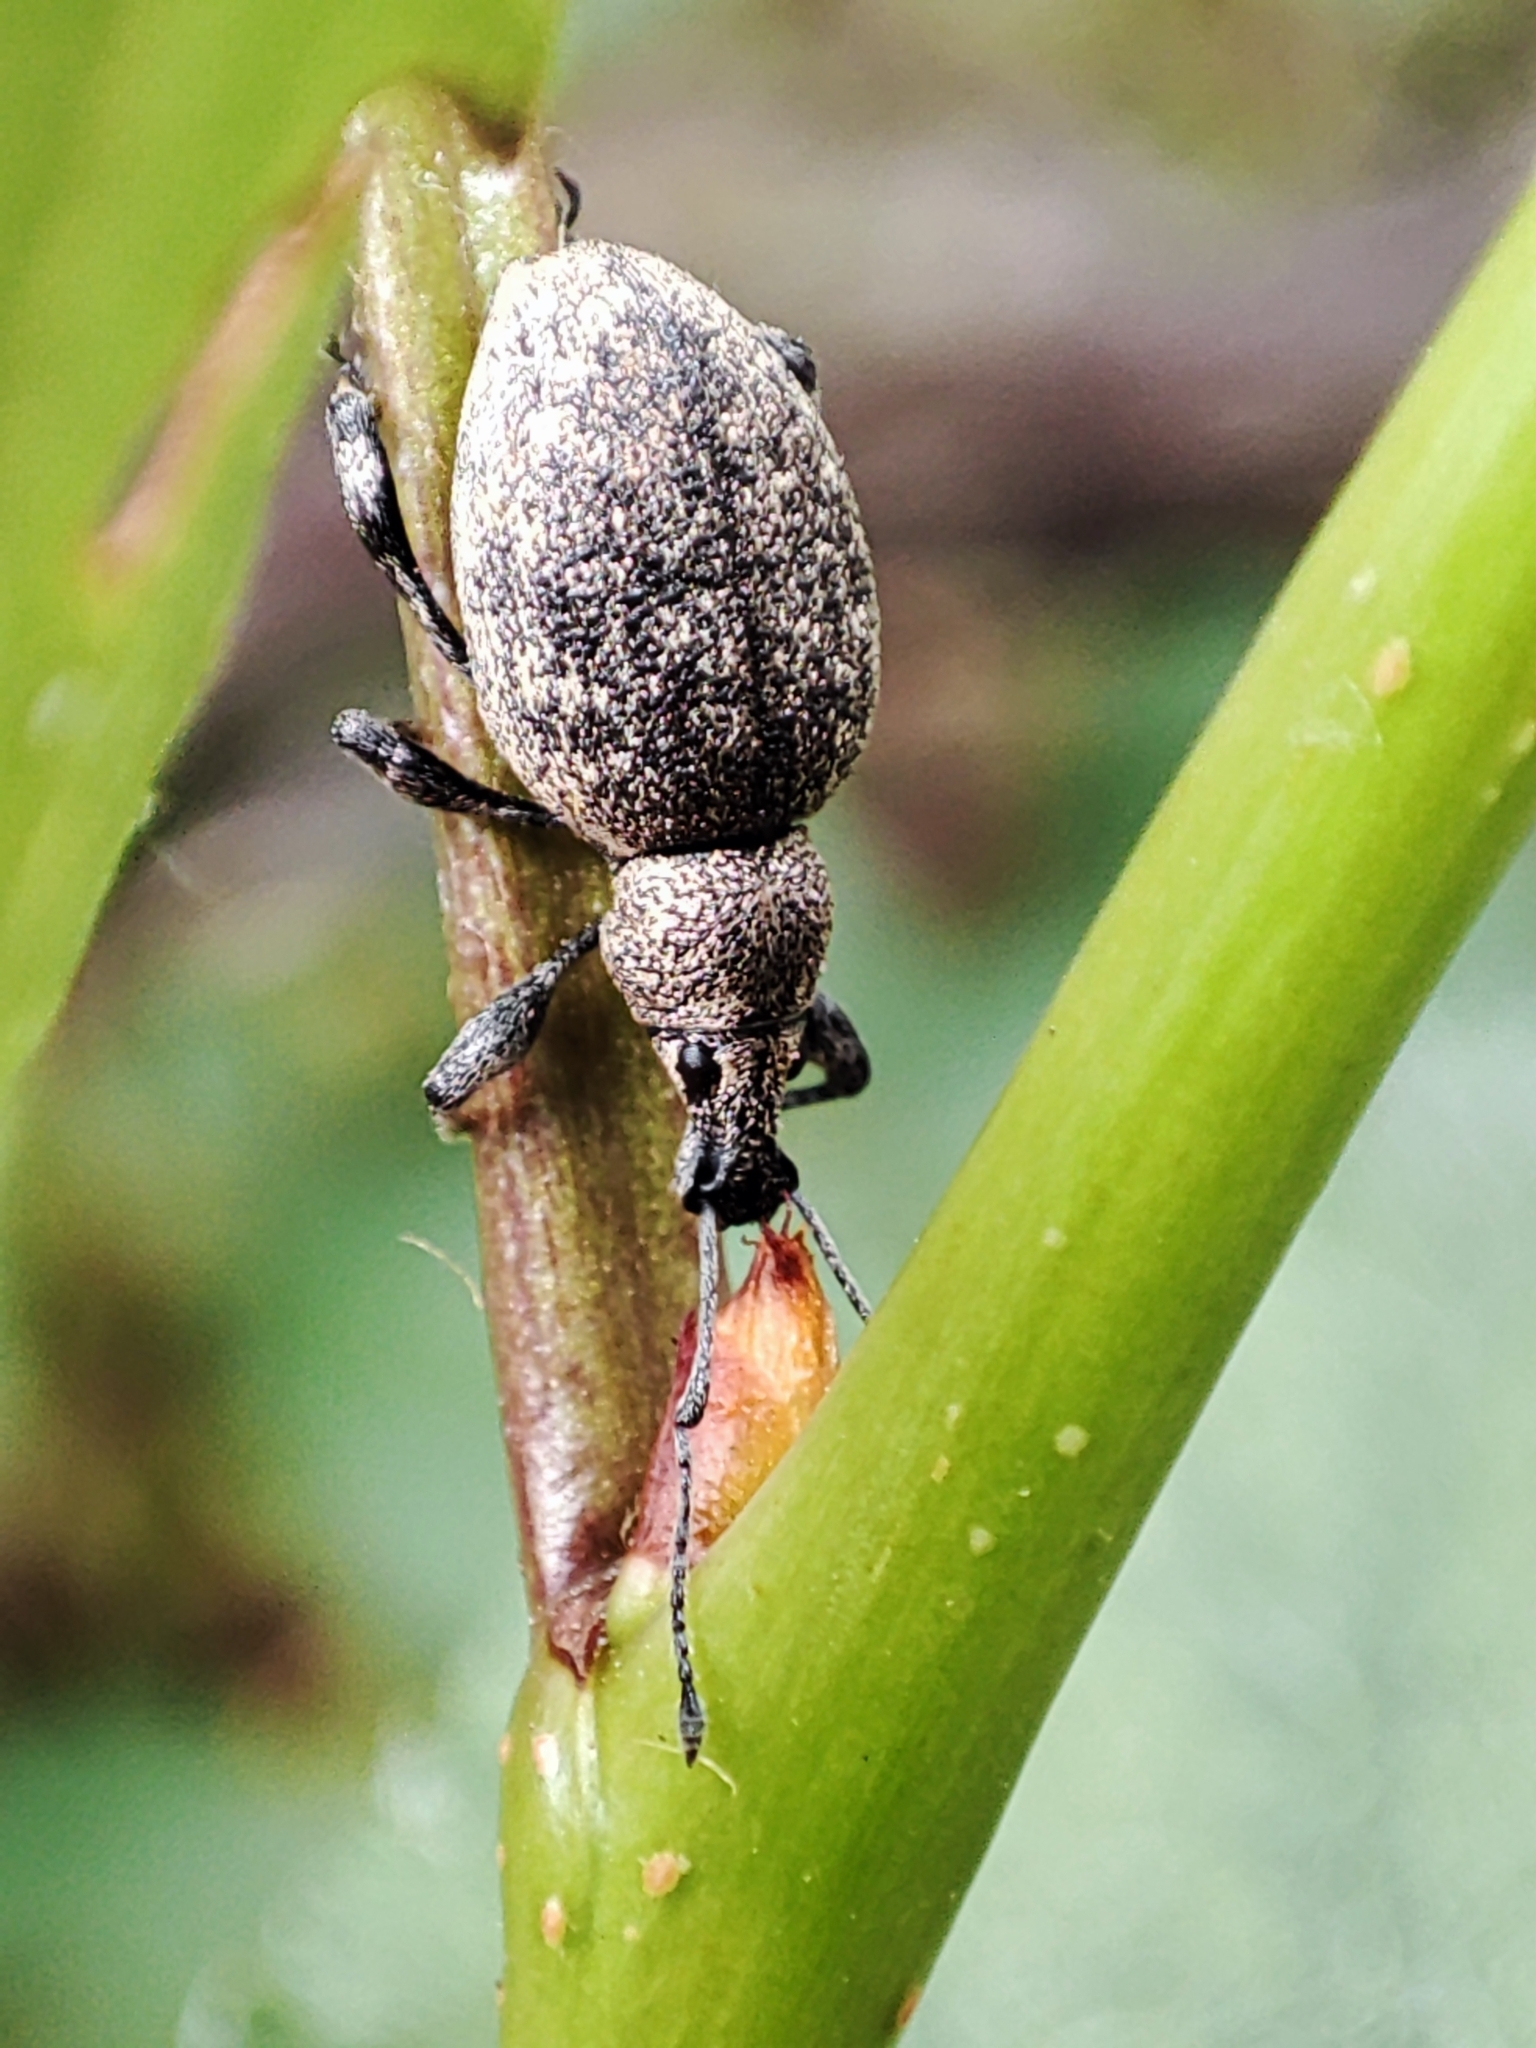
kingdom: Animalia
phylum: Arthropoda
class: Insecta
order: Coleoptera
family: Curculionidae
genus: Otiorhynchus
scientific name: Otiorhynchus ligustici
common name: Weevil
